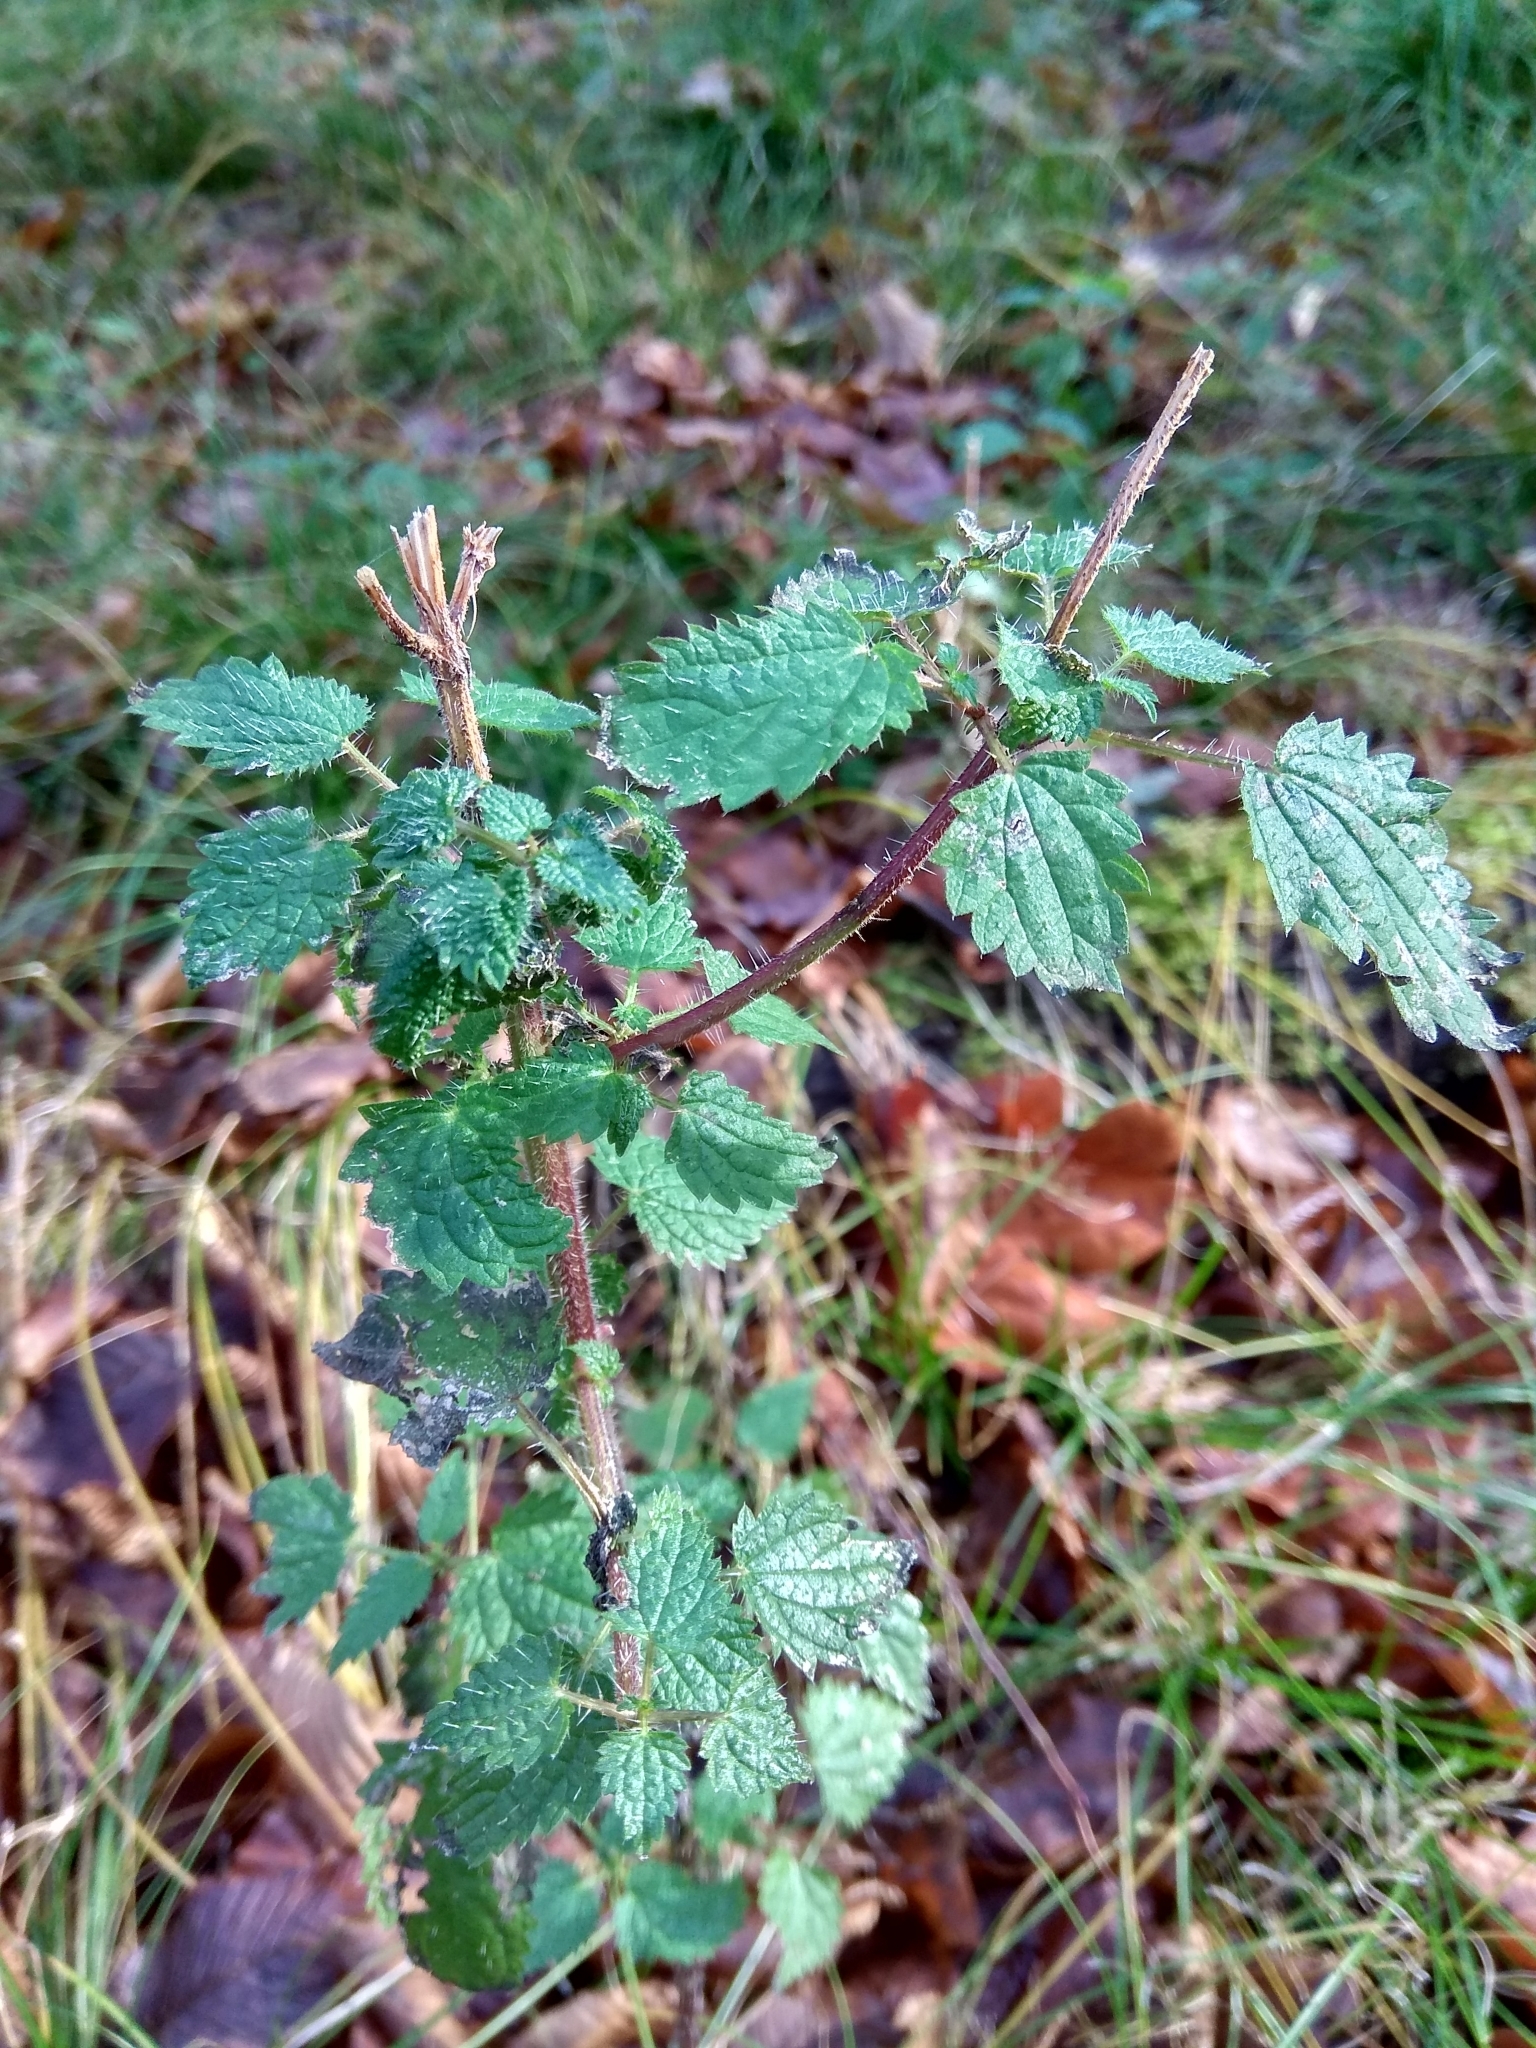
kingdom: Plantae
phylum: Tracheophyta
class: Magnoliopsida
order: Rosales
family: Urticaceae
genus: Urtica
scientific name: Urtica dioica
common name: Common nettle
